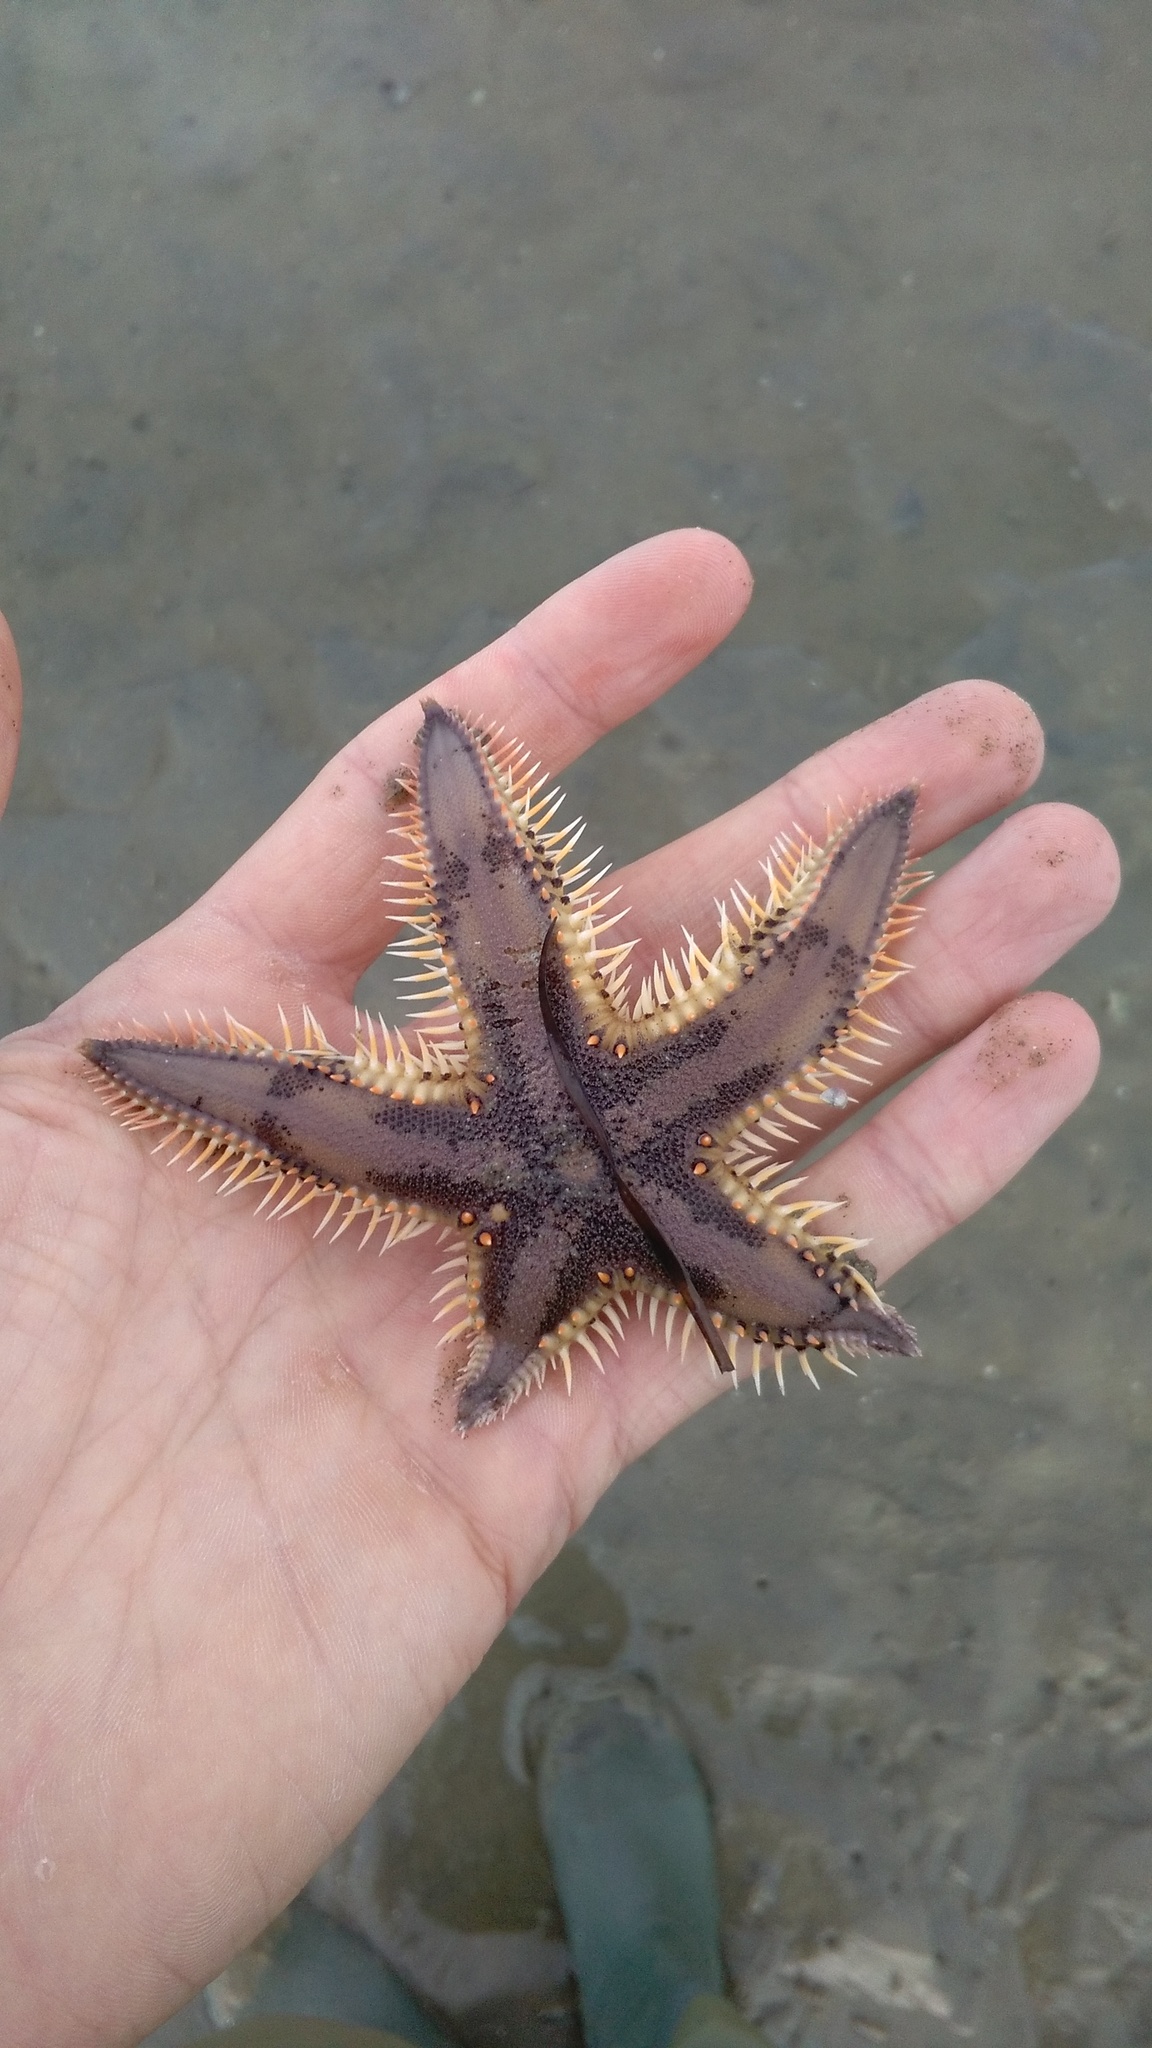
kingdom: Animalia
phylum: Echinodermata
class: Asteroidea
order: Paxillosida
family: Astropectinidae
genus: Astropecten
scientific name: Astropecten polyacanthus
